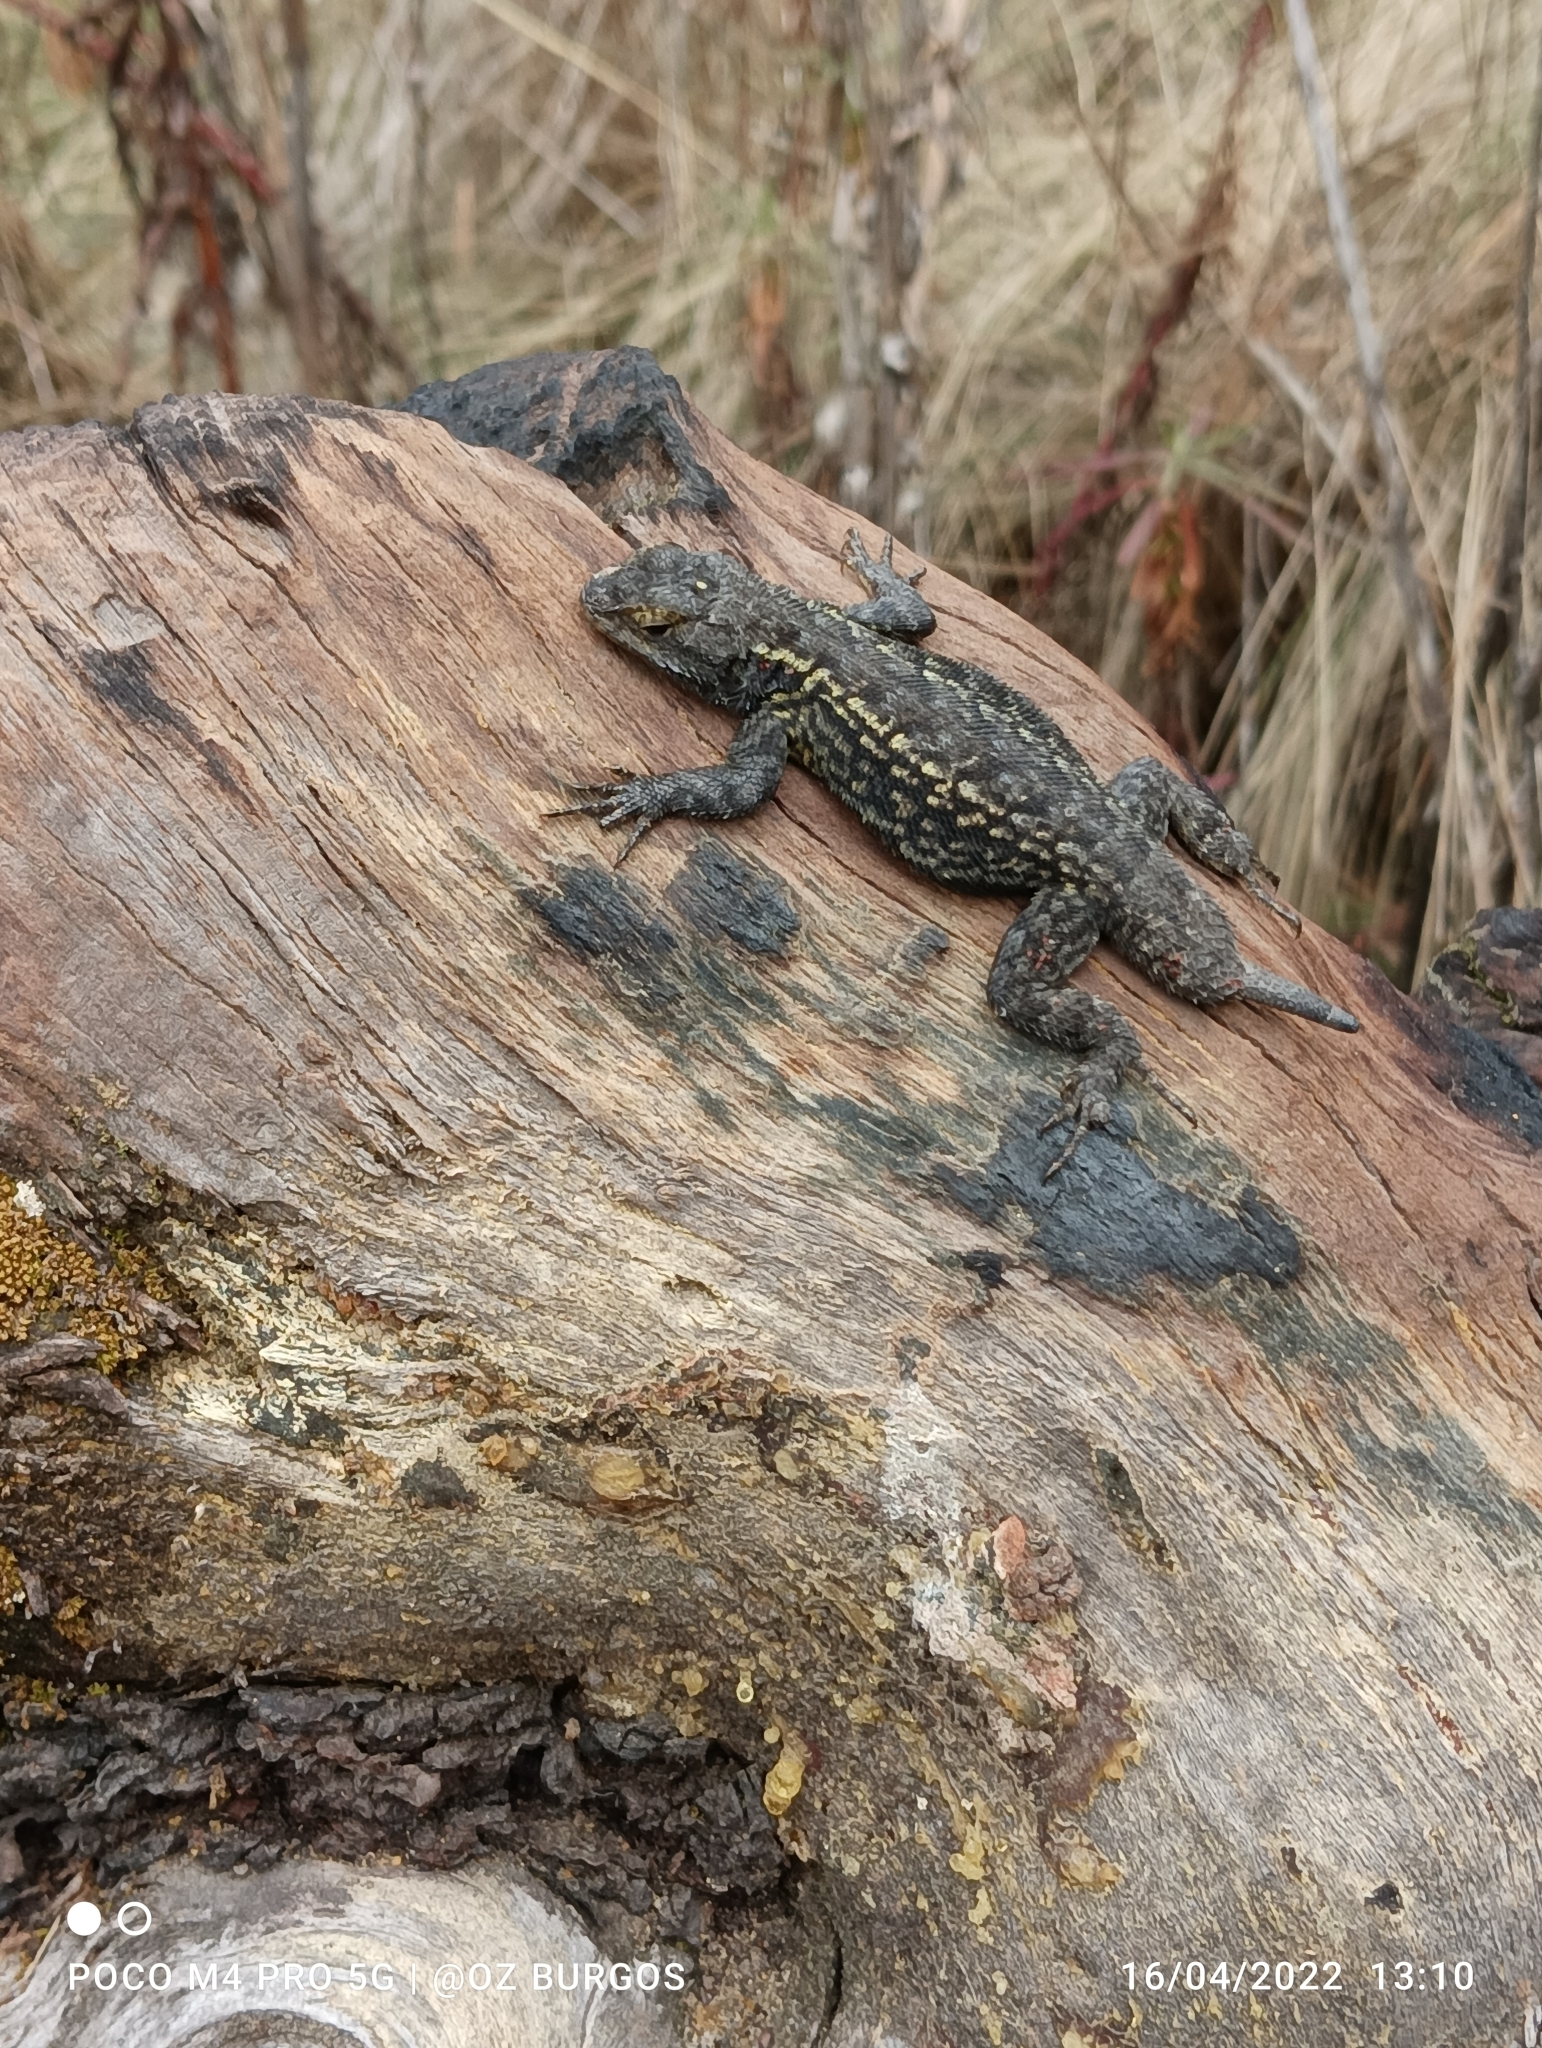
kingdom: Animalia
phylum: Chordata
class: Squamata
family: Phrynosomatidae
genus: Sceloporus
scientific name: Sceloporus anahuacus
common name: Anahuacan bunchgrass lizard
